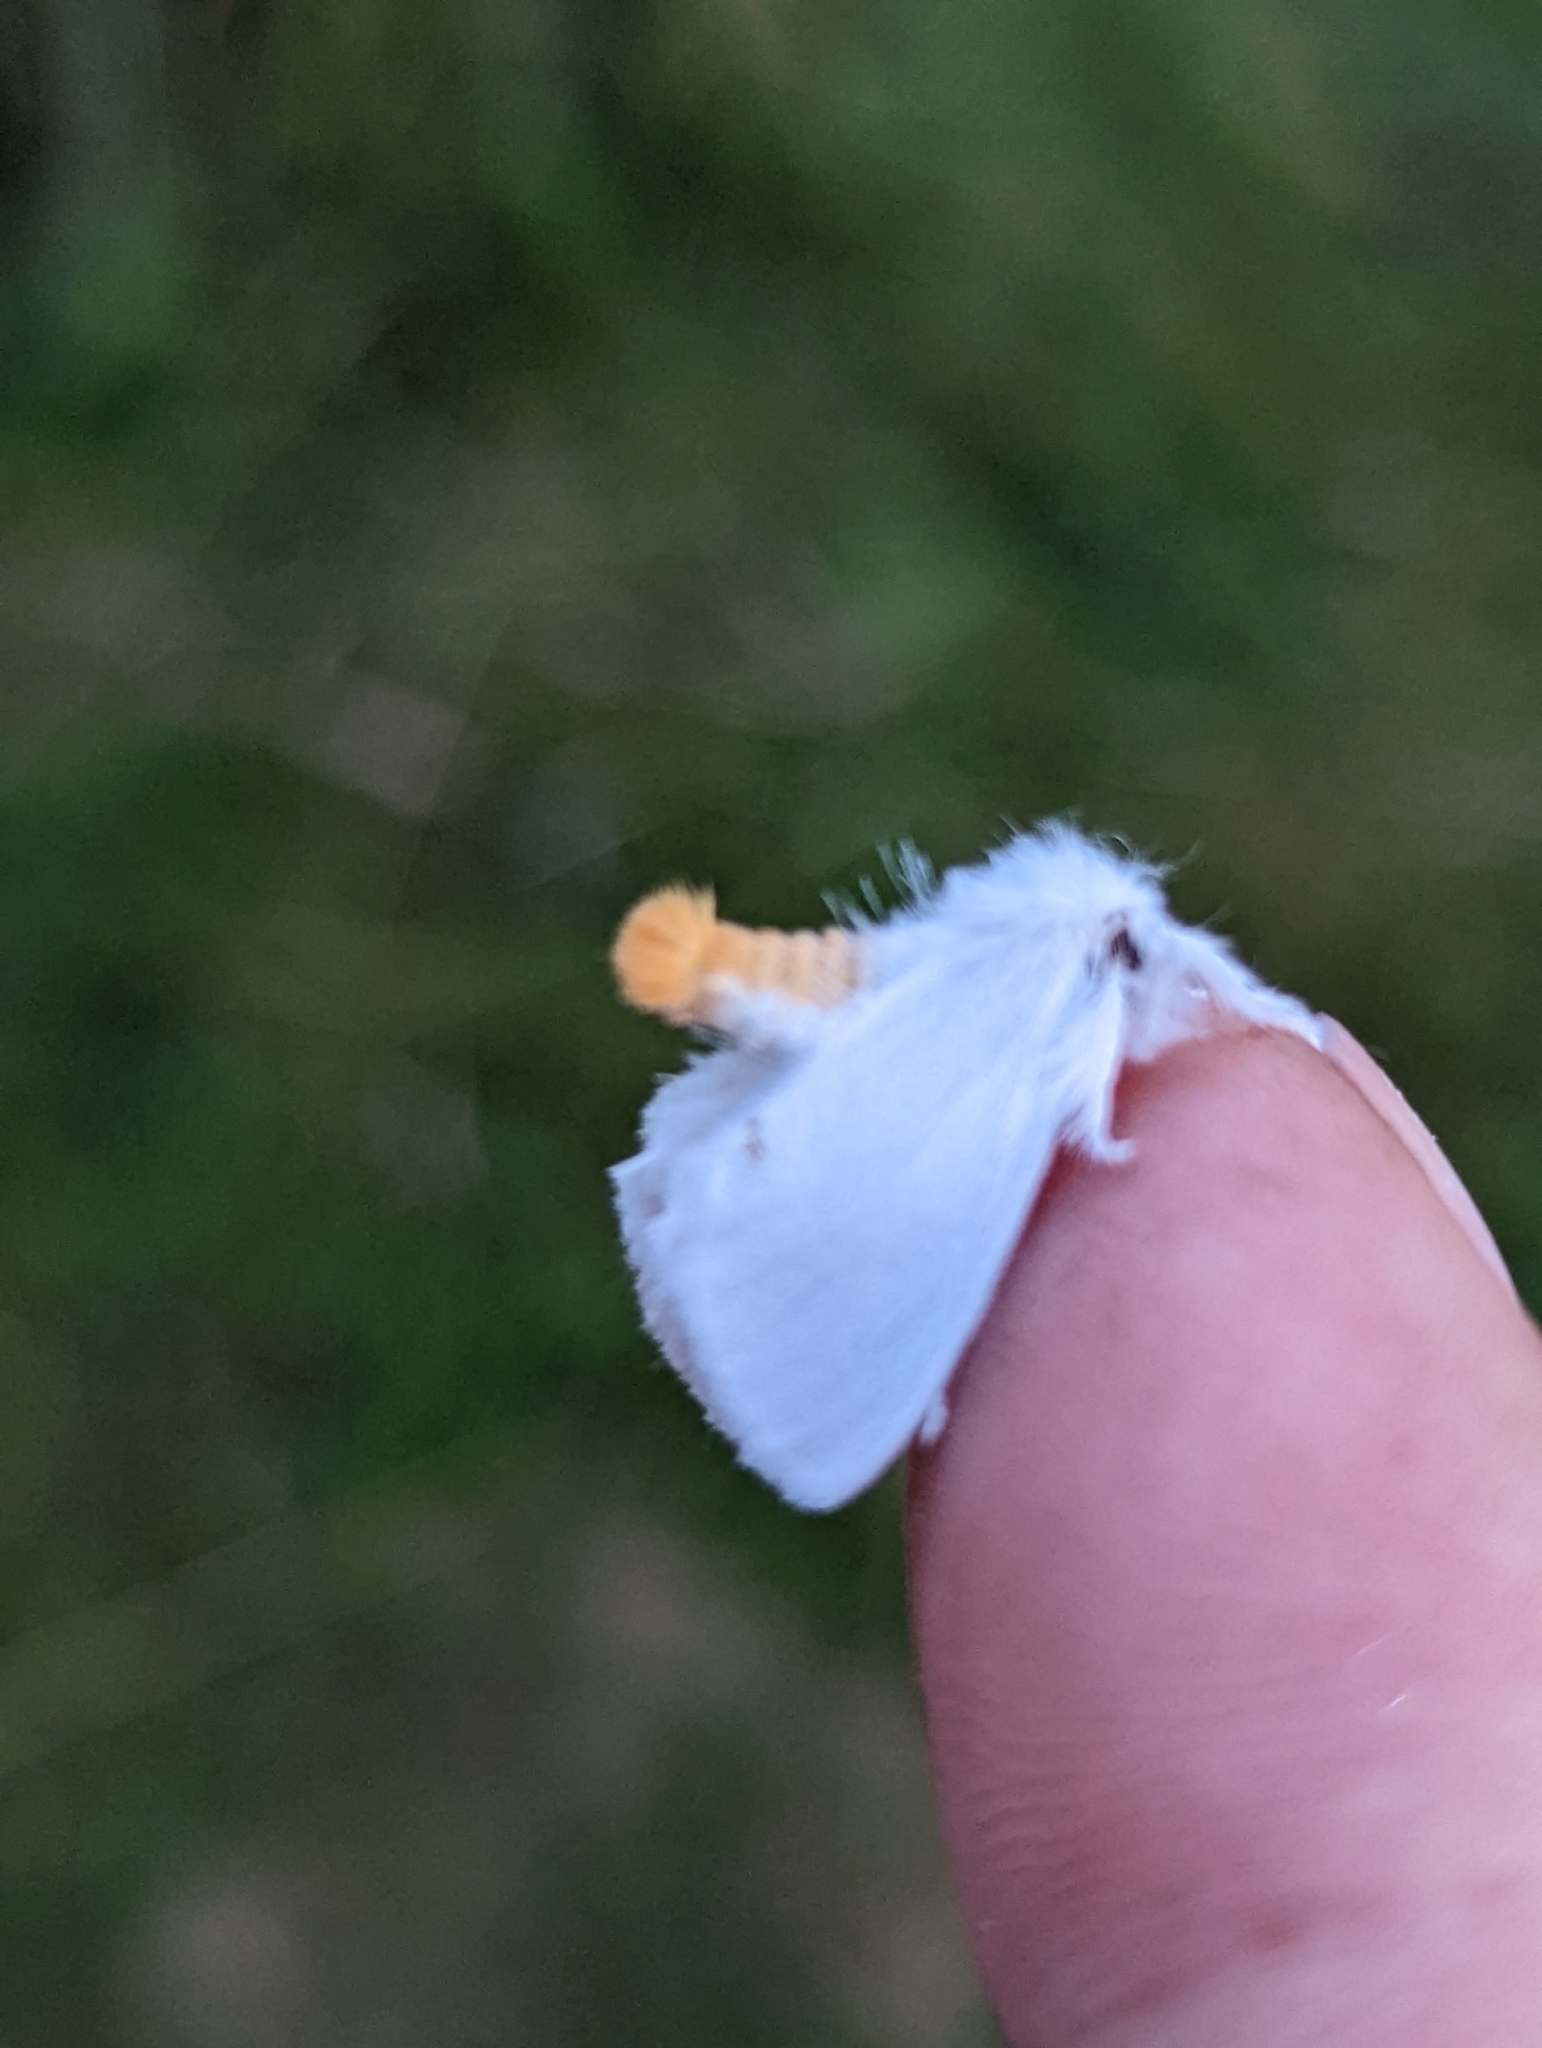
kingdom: Animalia
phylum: Arthropoda
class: Insecta
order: Lepidoptera
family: Erebidae
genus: Sphrageidus
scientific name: Sphrageidus similis
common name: Yellow-tail
